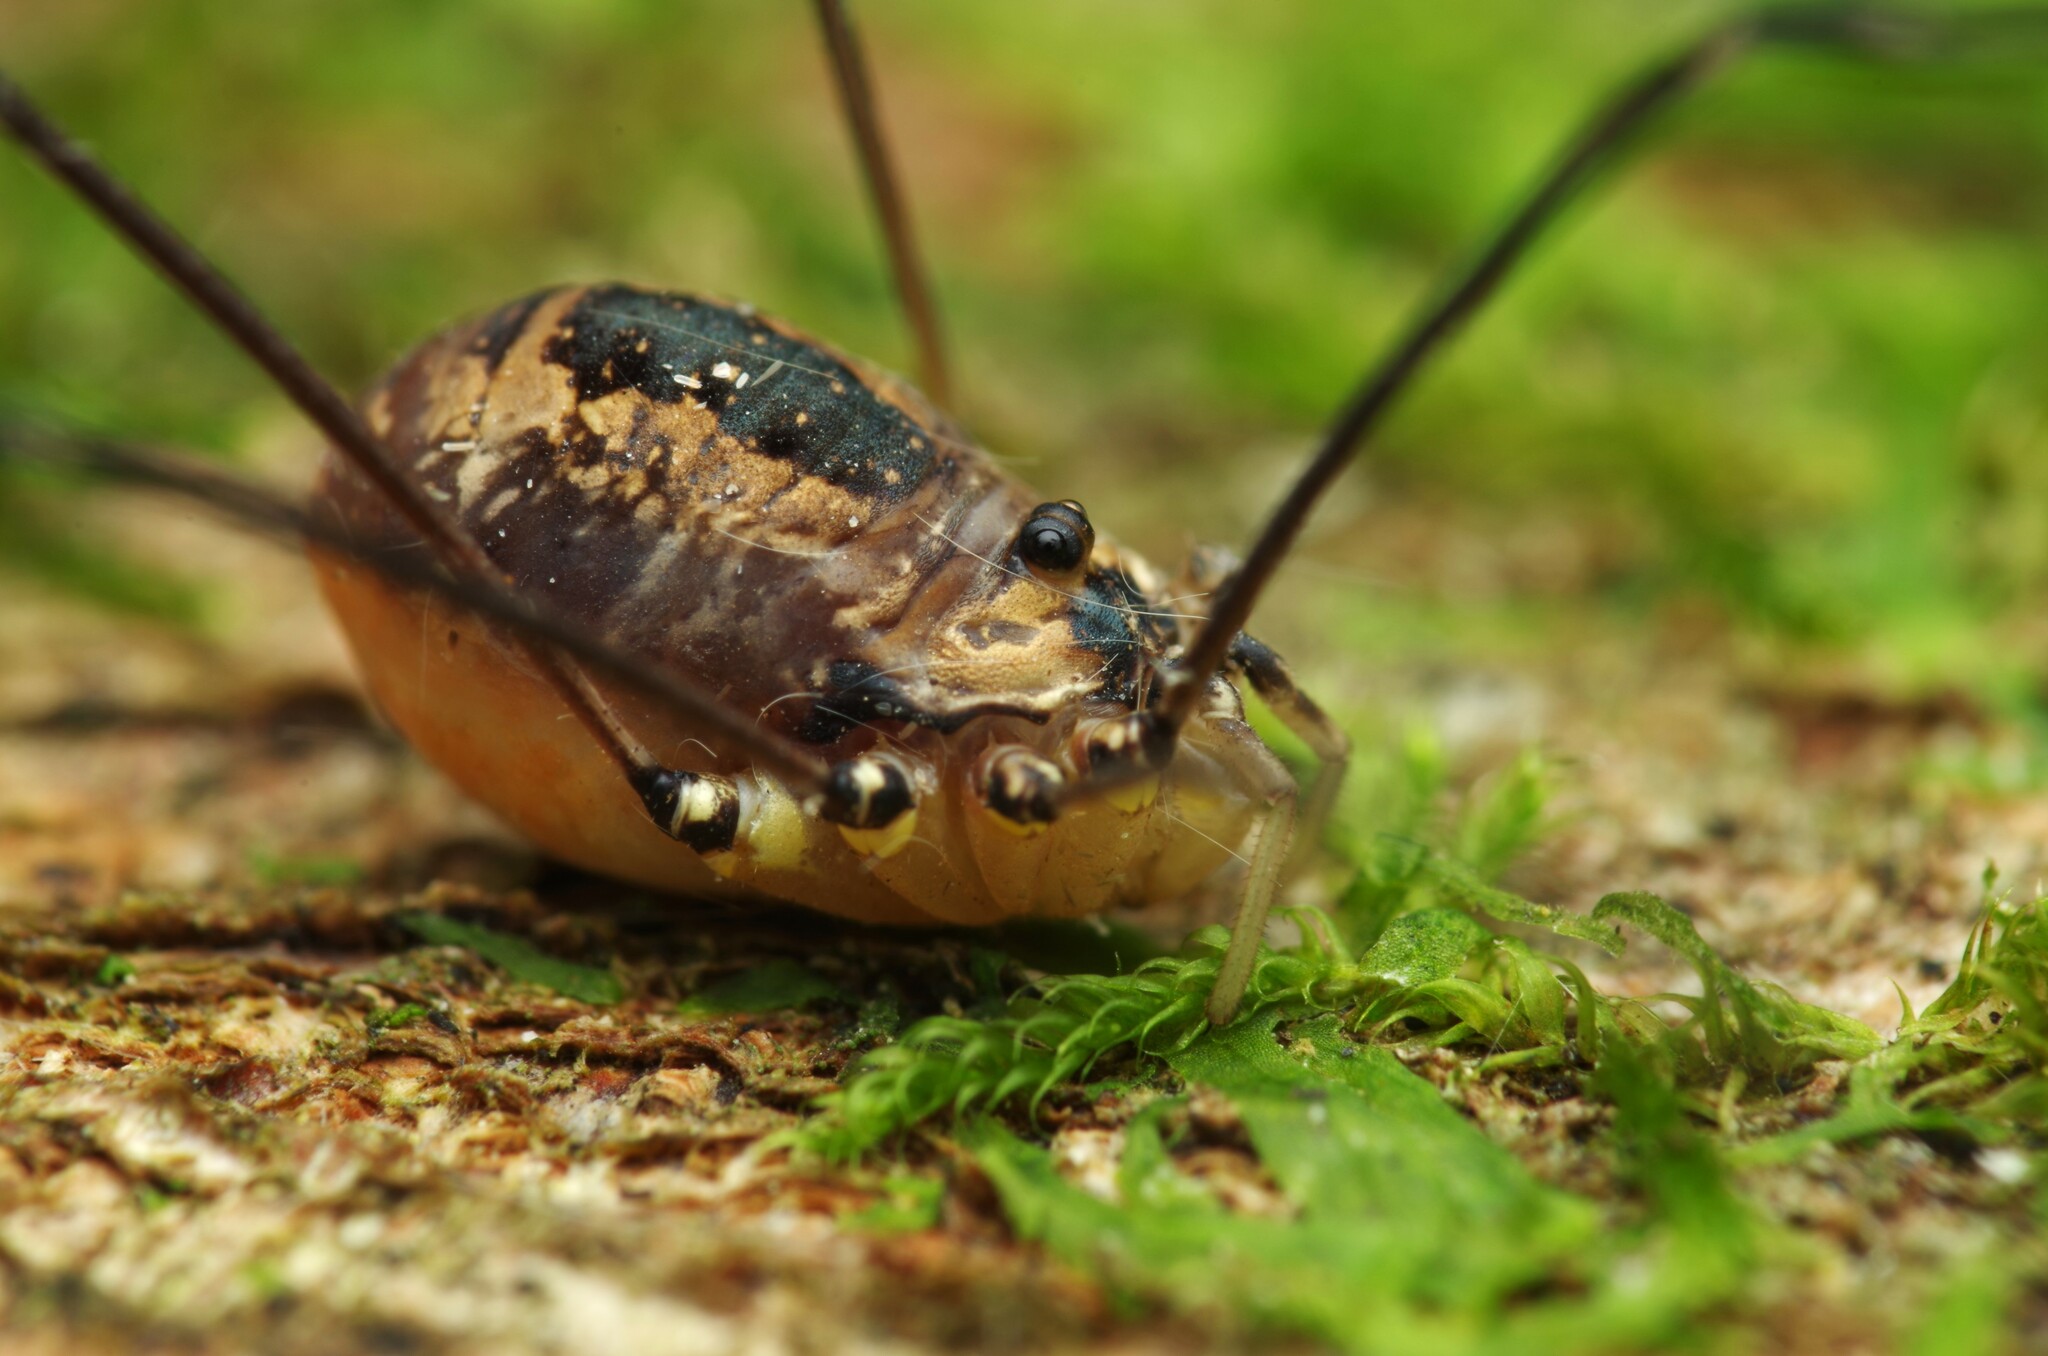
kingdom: Animalia
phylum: Arthropoda
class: Arachnida
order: Opiliones
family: Sclerosomatidae
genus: Leiobunum
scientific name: Leiobunum rotundum
